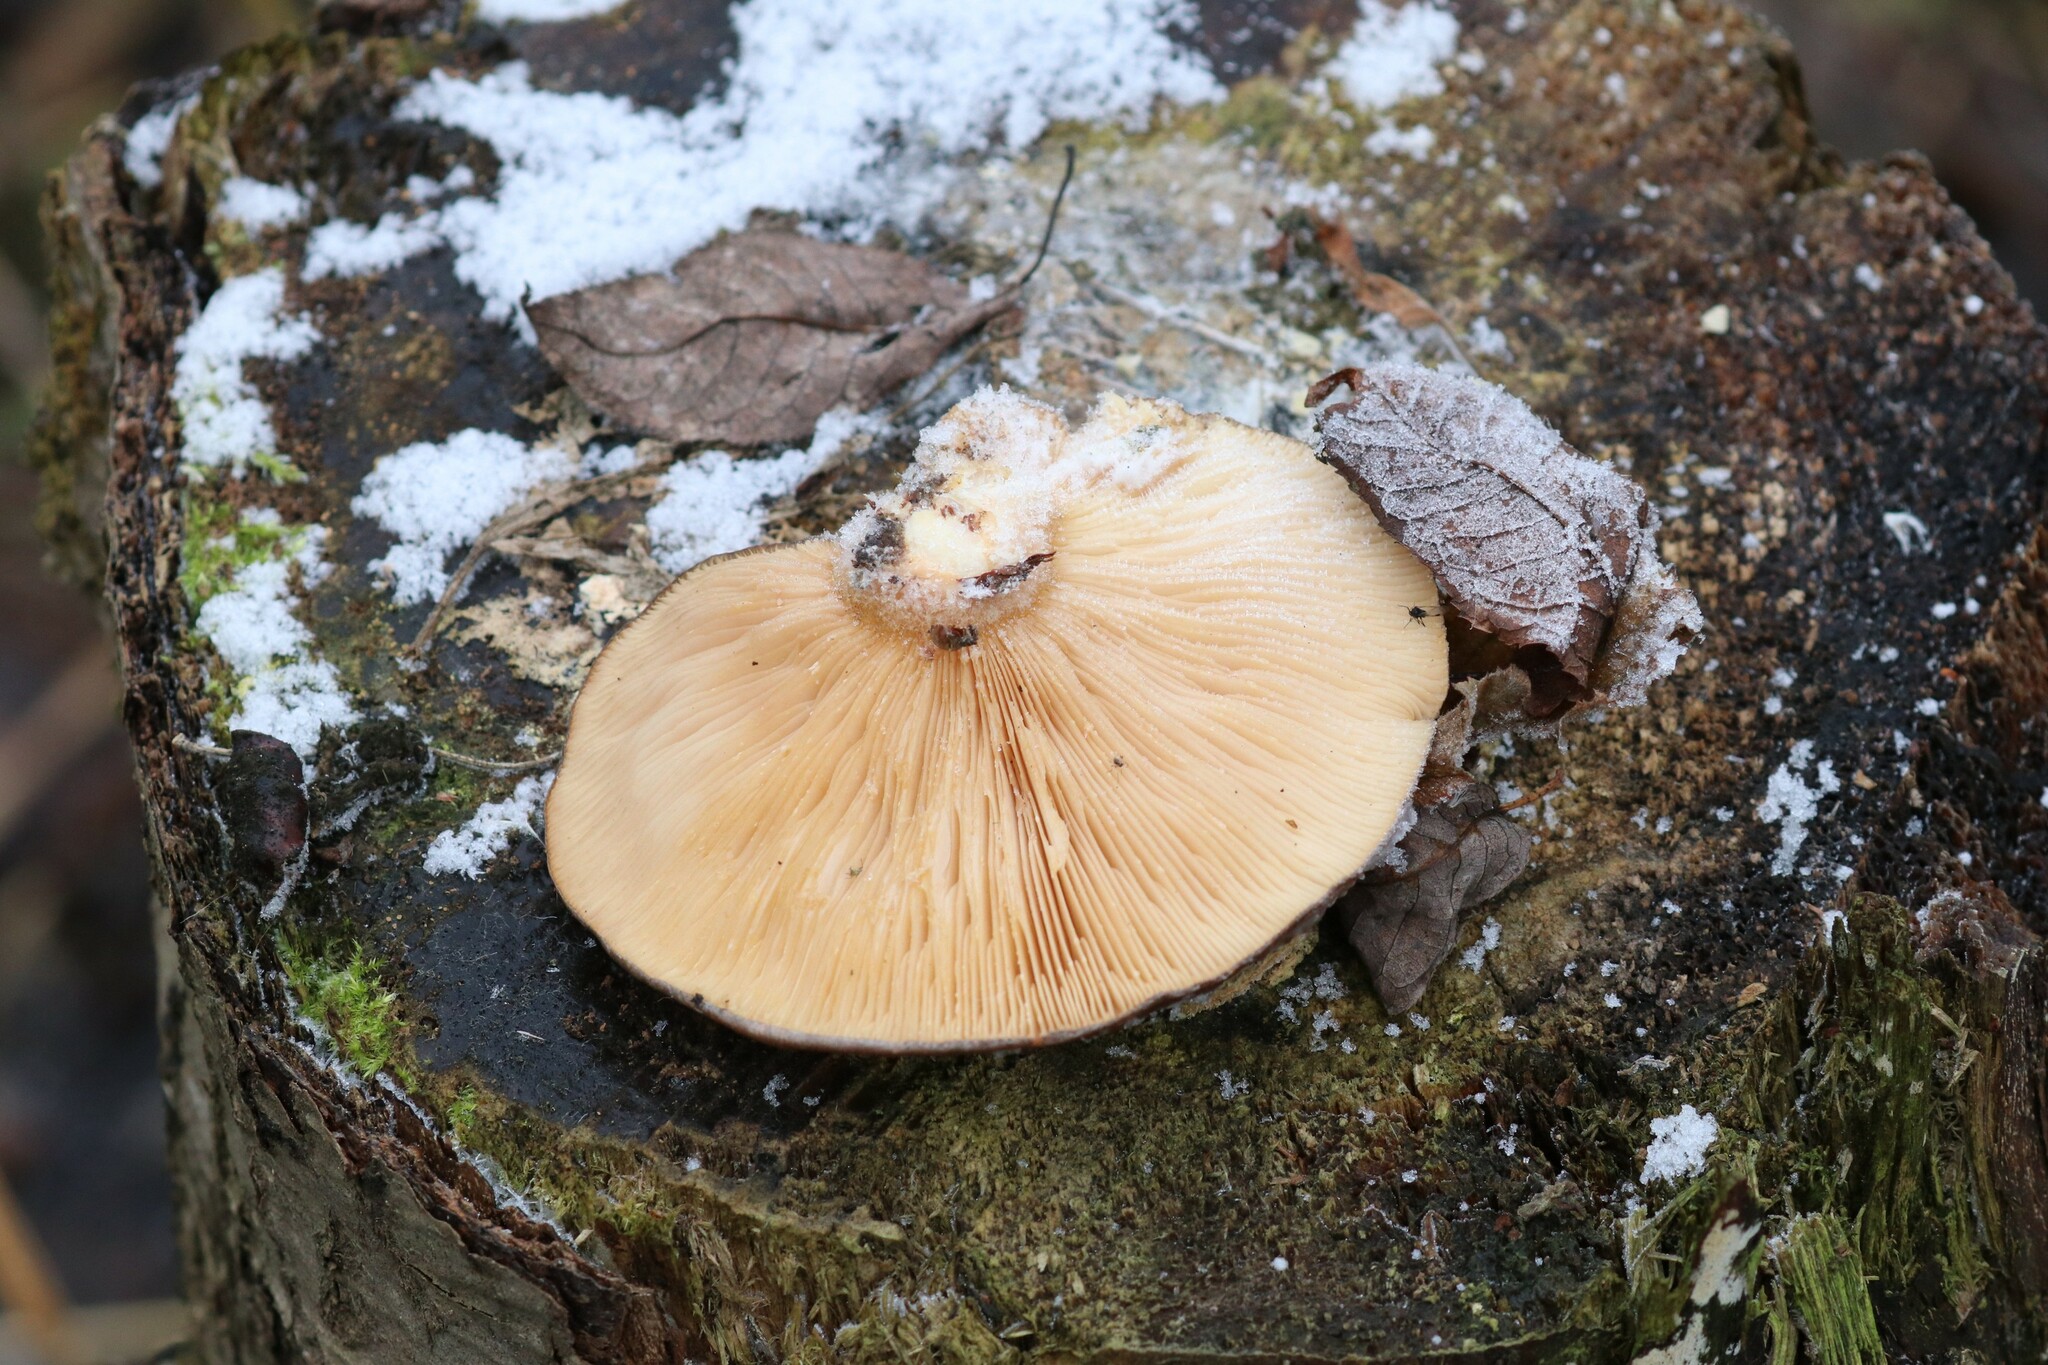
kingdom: Fungi
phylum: Basidiomycota
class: Agaricomycetes
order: Agaricales
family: Sarcomyxaceae
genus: Sarcomyxa
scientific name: Sarcomyxa serotina
